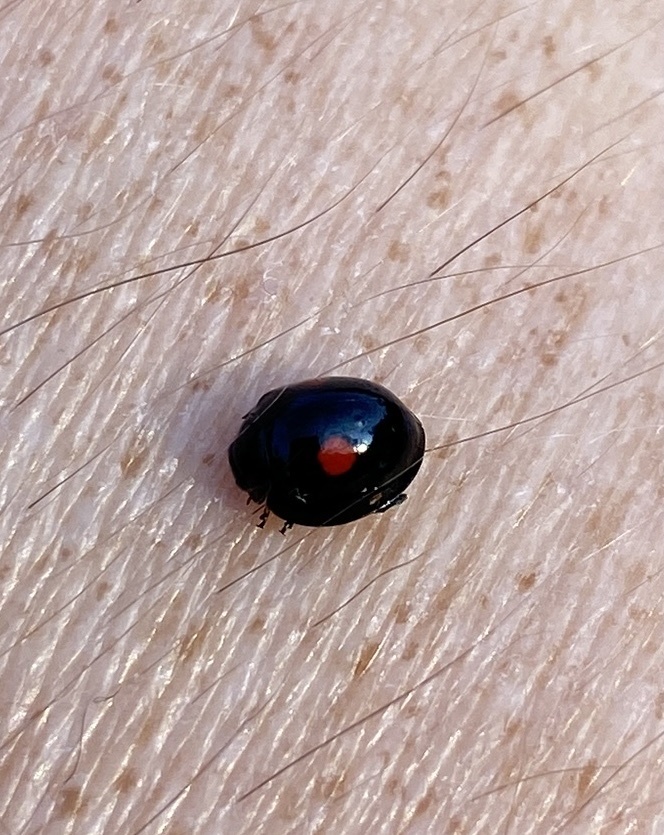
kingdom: Animalia
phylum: Arthropoda
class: Insecta
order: Coleoptera
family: Coccinellidae
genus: Chilocorus
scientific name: Chilocorus stigma
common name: Twicestabbed lady beetle
